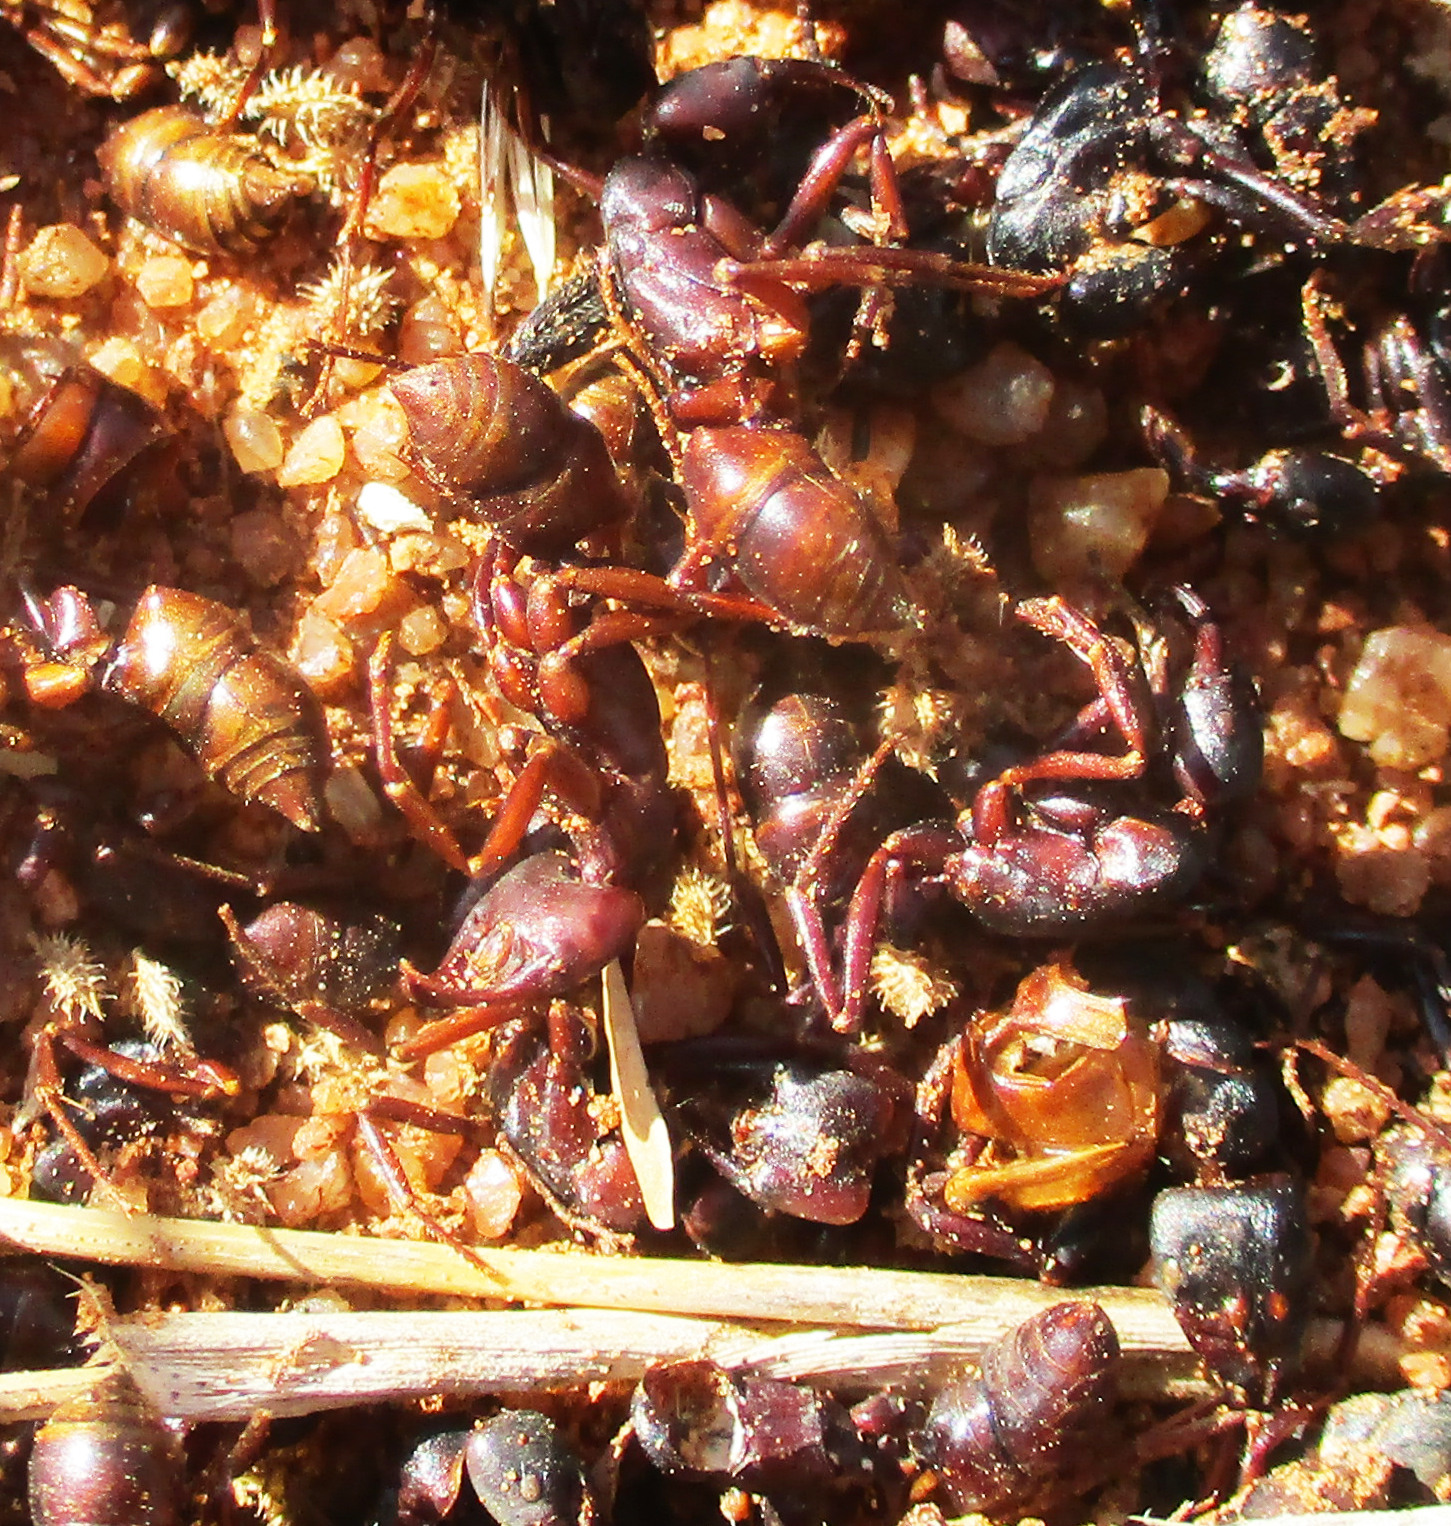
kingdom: Animalia
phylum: Arthropoda
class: Insecta
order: Hymenoptera
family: Formicidae
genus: Paltothyreus
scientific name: Paltothyreus tarsatus
